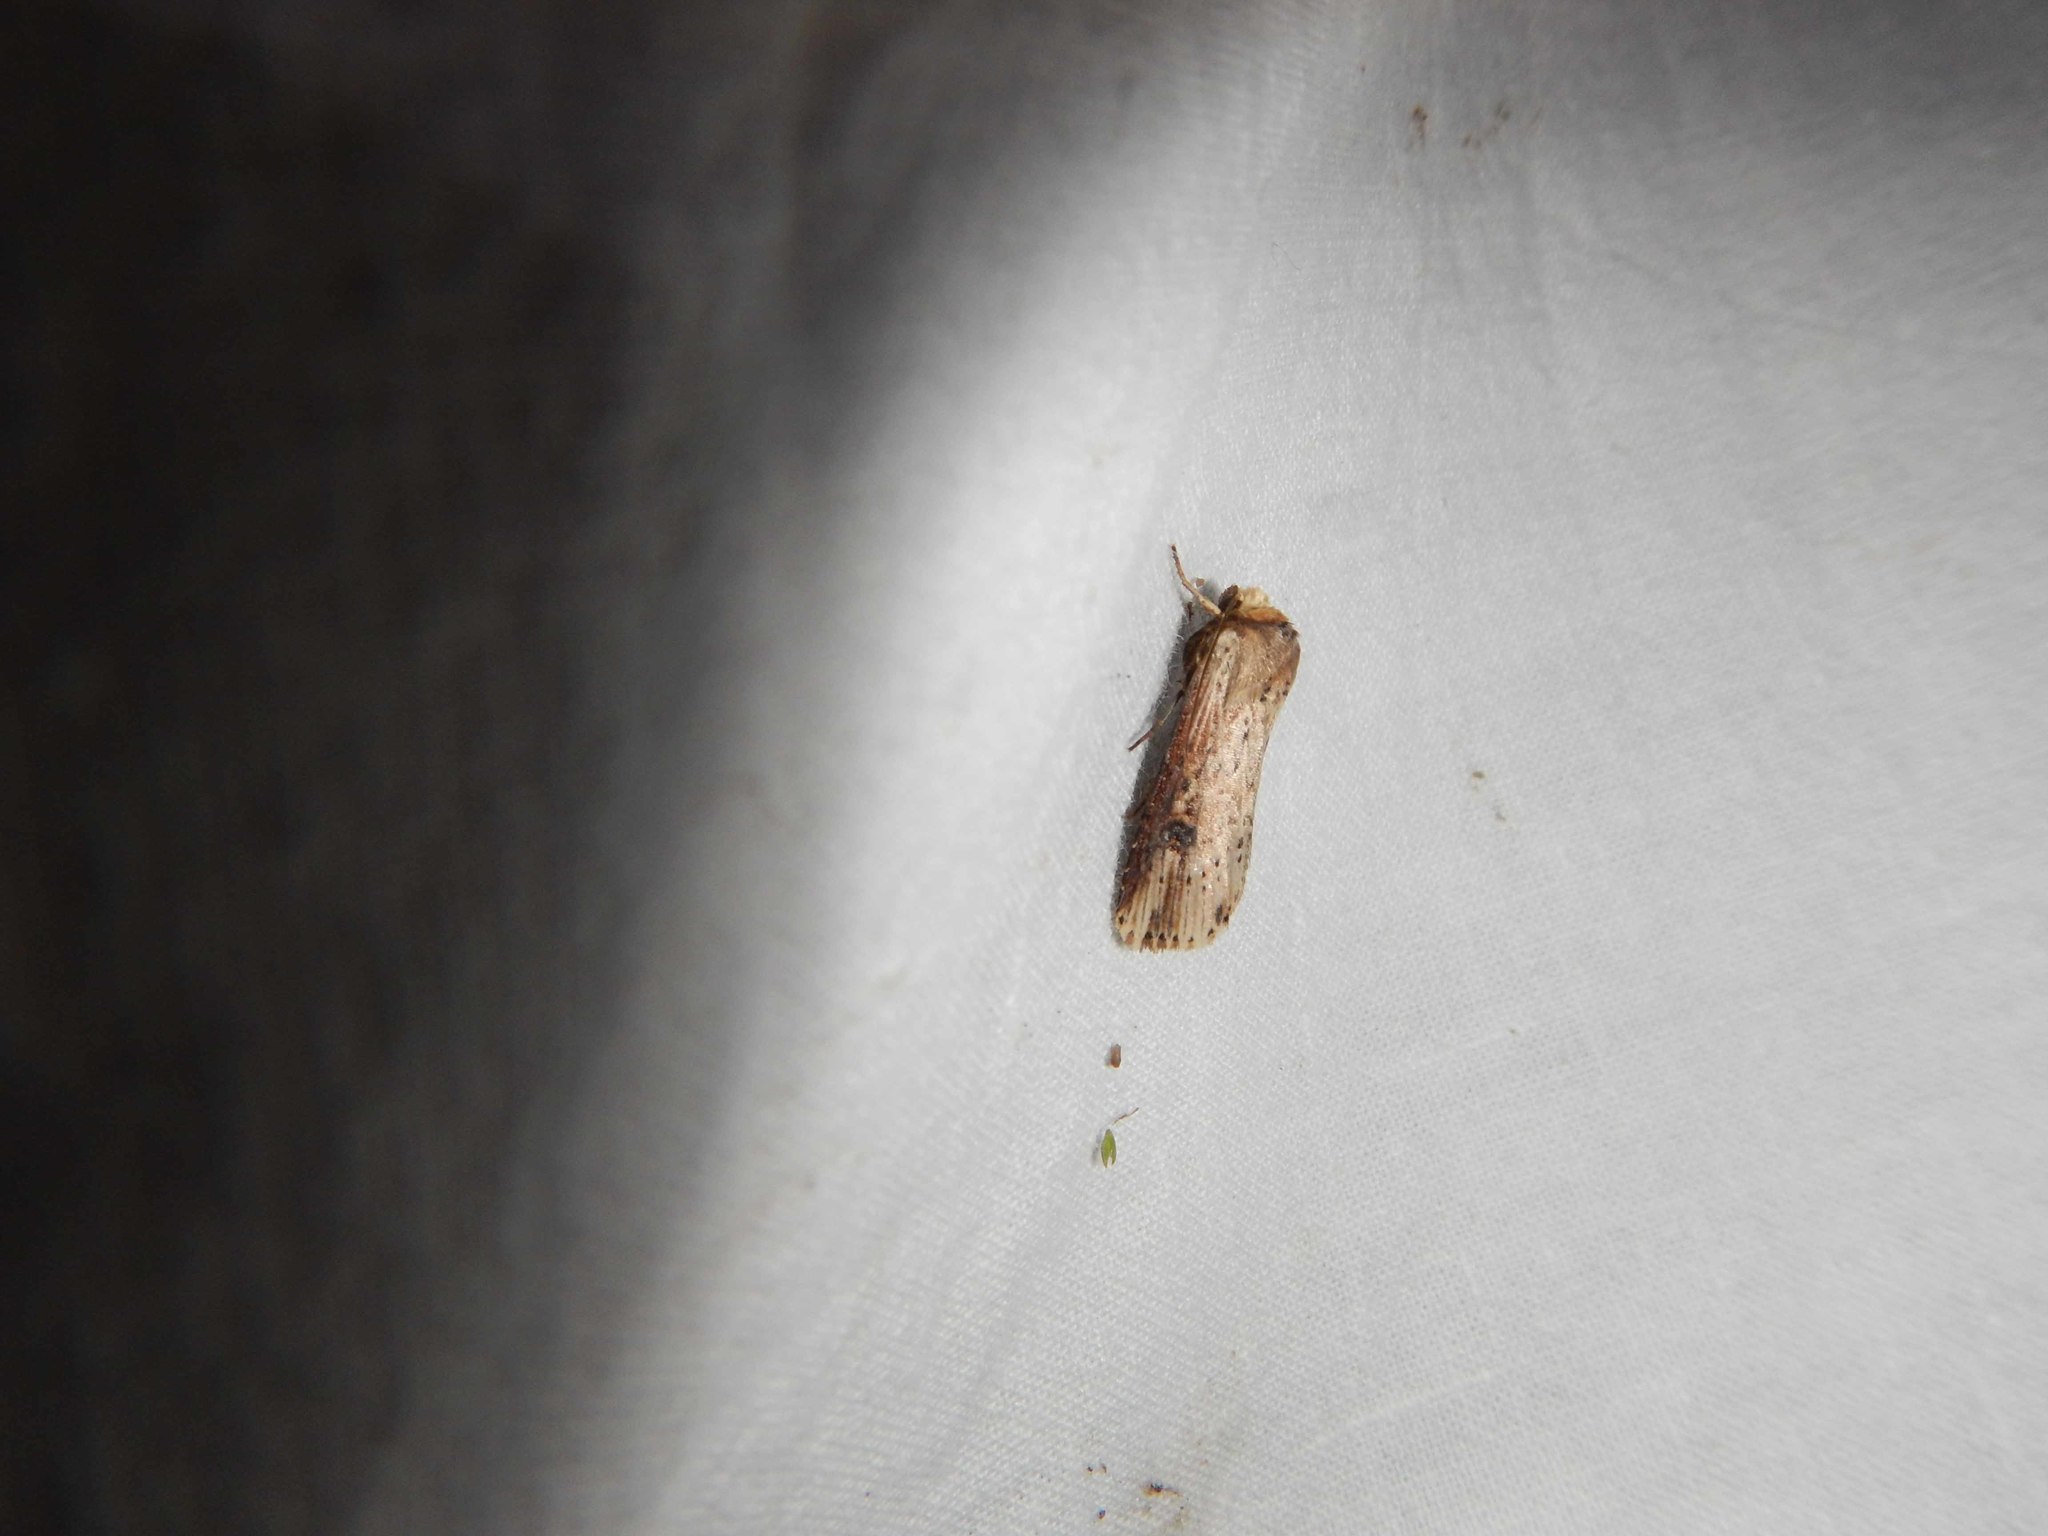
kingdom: Animalia
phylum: Arthropoda
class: Insecta
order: Lepidoptera
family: Noctuidae
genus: Axylia
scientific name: Axylia putris
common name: Flame
